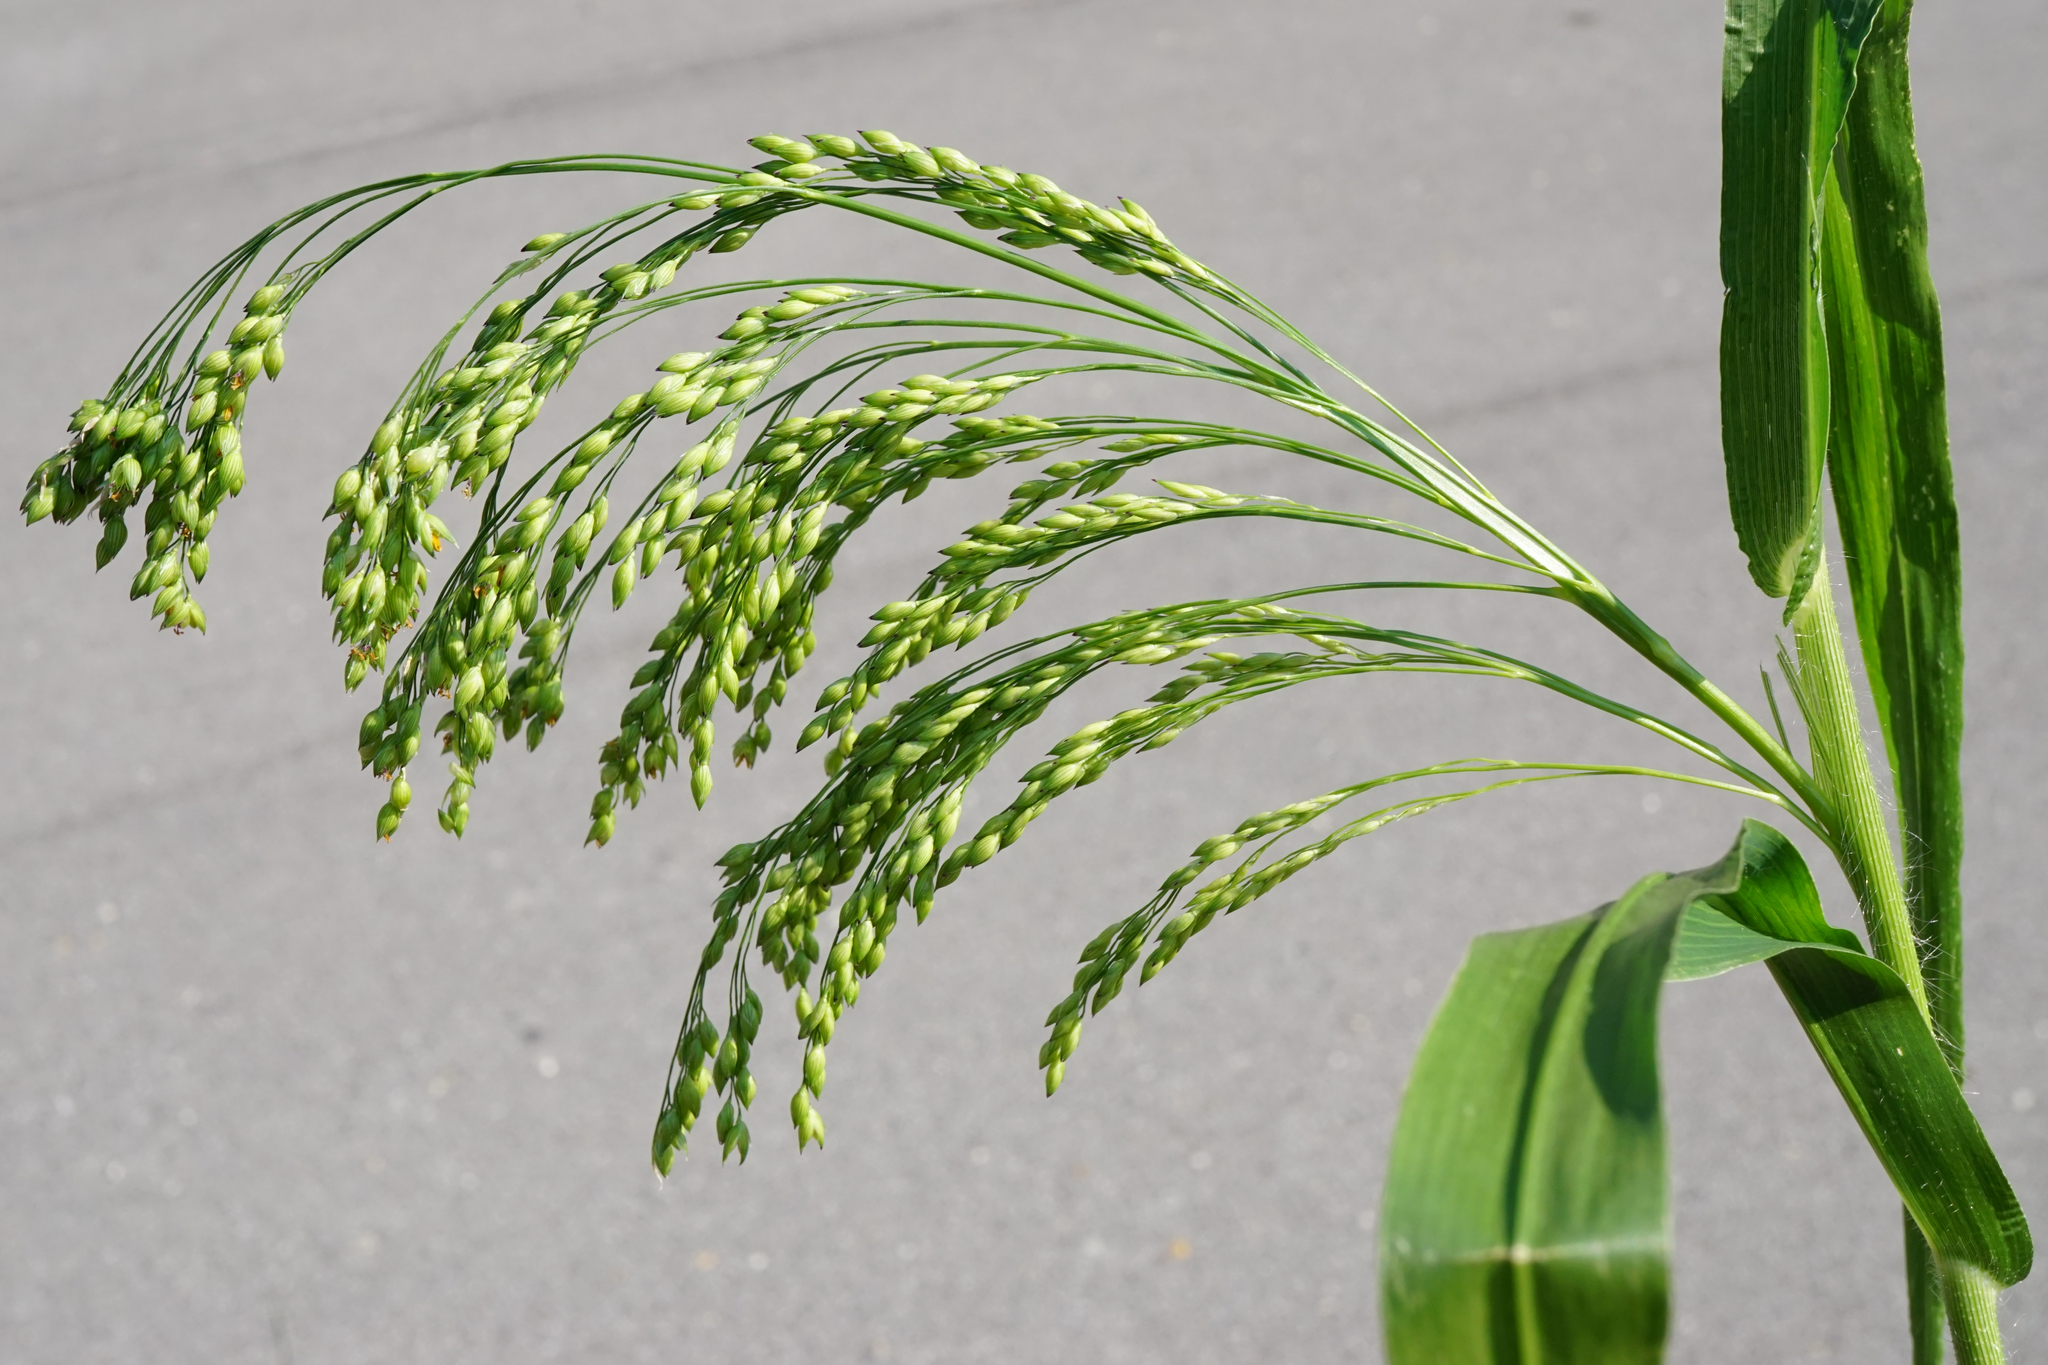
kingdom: Plantae
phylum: Tracheophyta
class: Liliopsida
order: Poales
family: Poaceae
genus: Panicum
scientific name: Panicum miliaceum
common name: Common millet
